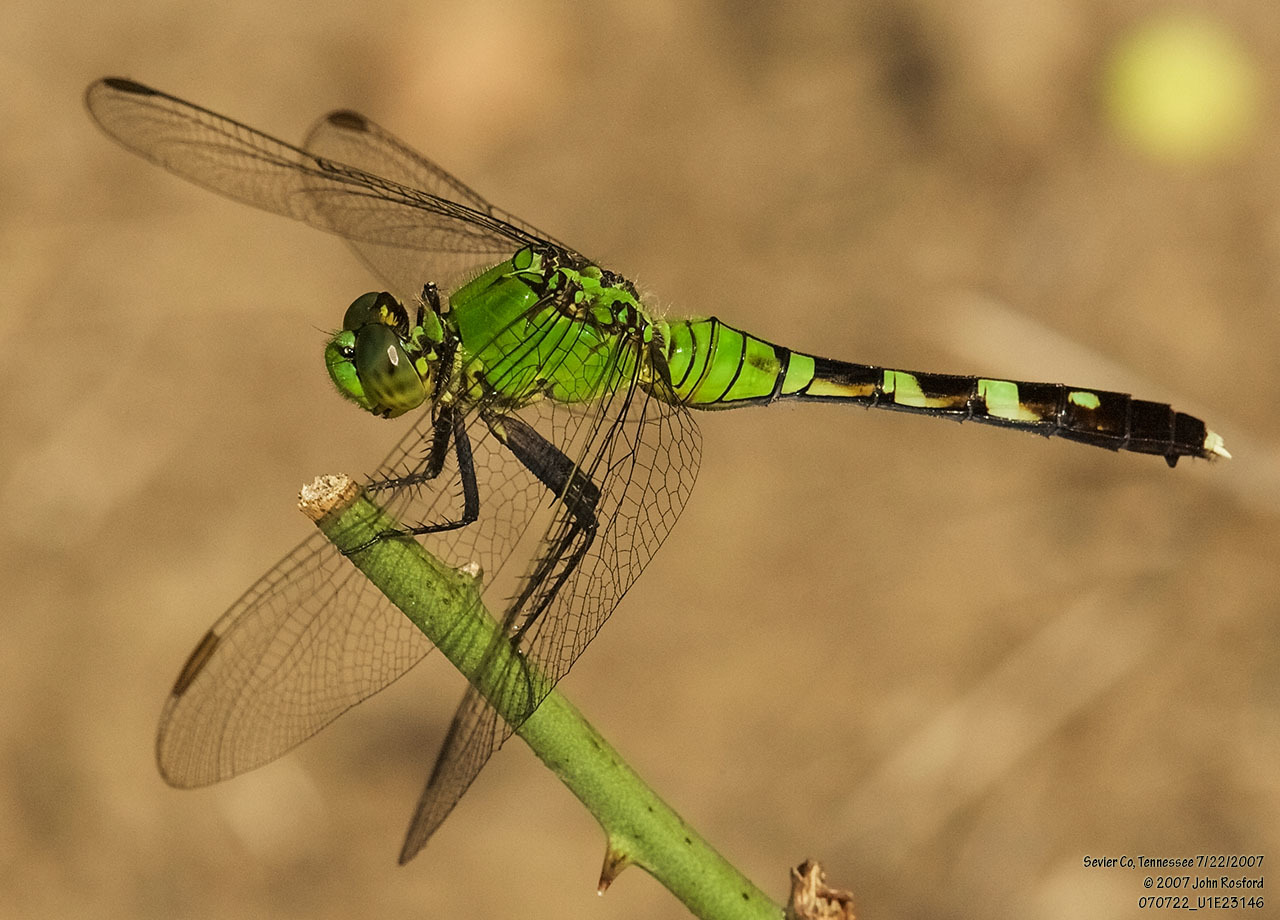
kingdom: Animalia
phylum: Arthropoda
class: Insecta
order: Odonata
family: Libellulidae
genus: Erythemis
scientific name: Erythemis simplicicollis
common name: Eastern pondhawk
